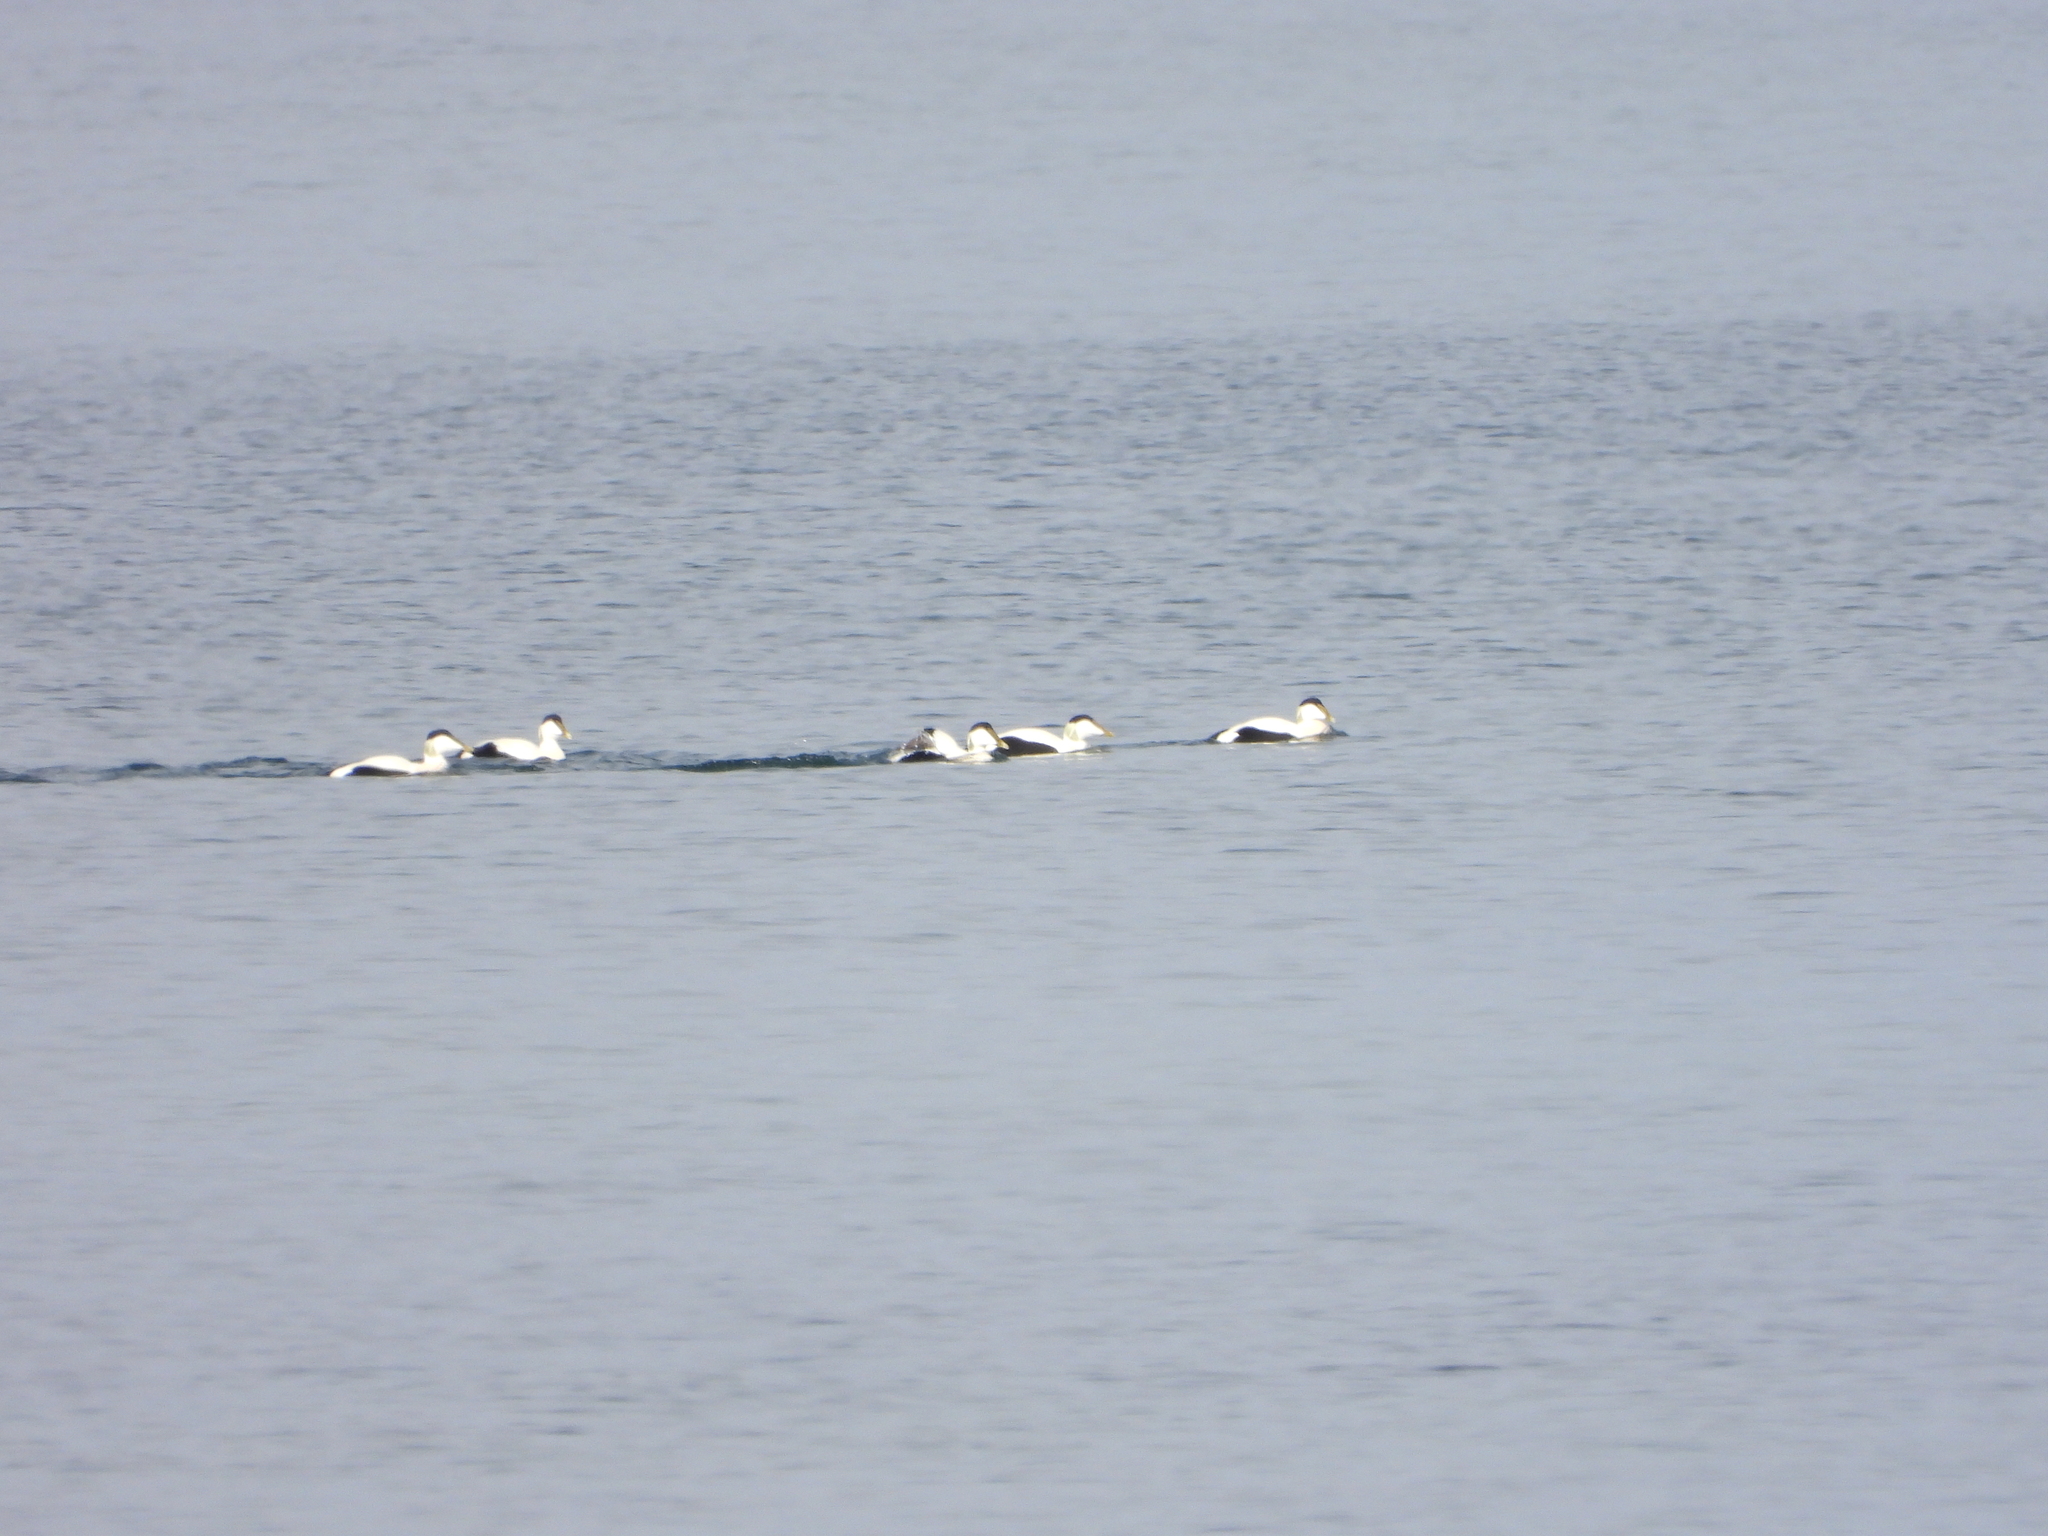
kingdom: Animalia
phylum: Chordata
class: Aves
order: Anseriformes
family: Anatidae
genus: Somateria
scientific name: Somateria mollissima
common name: Common eider
